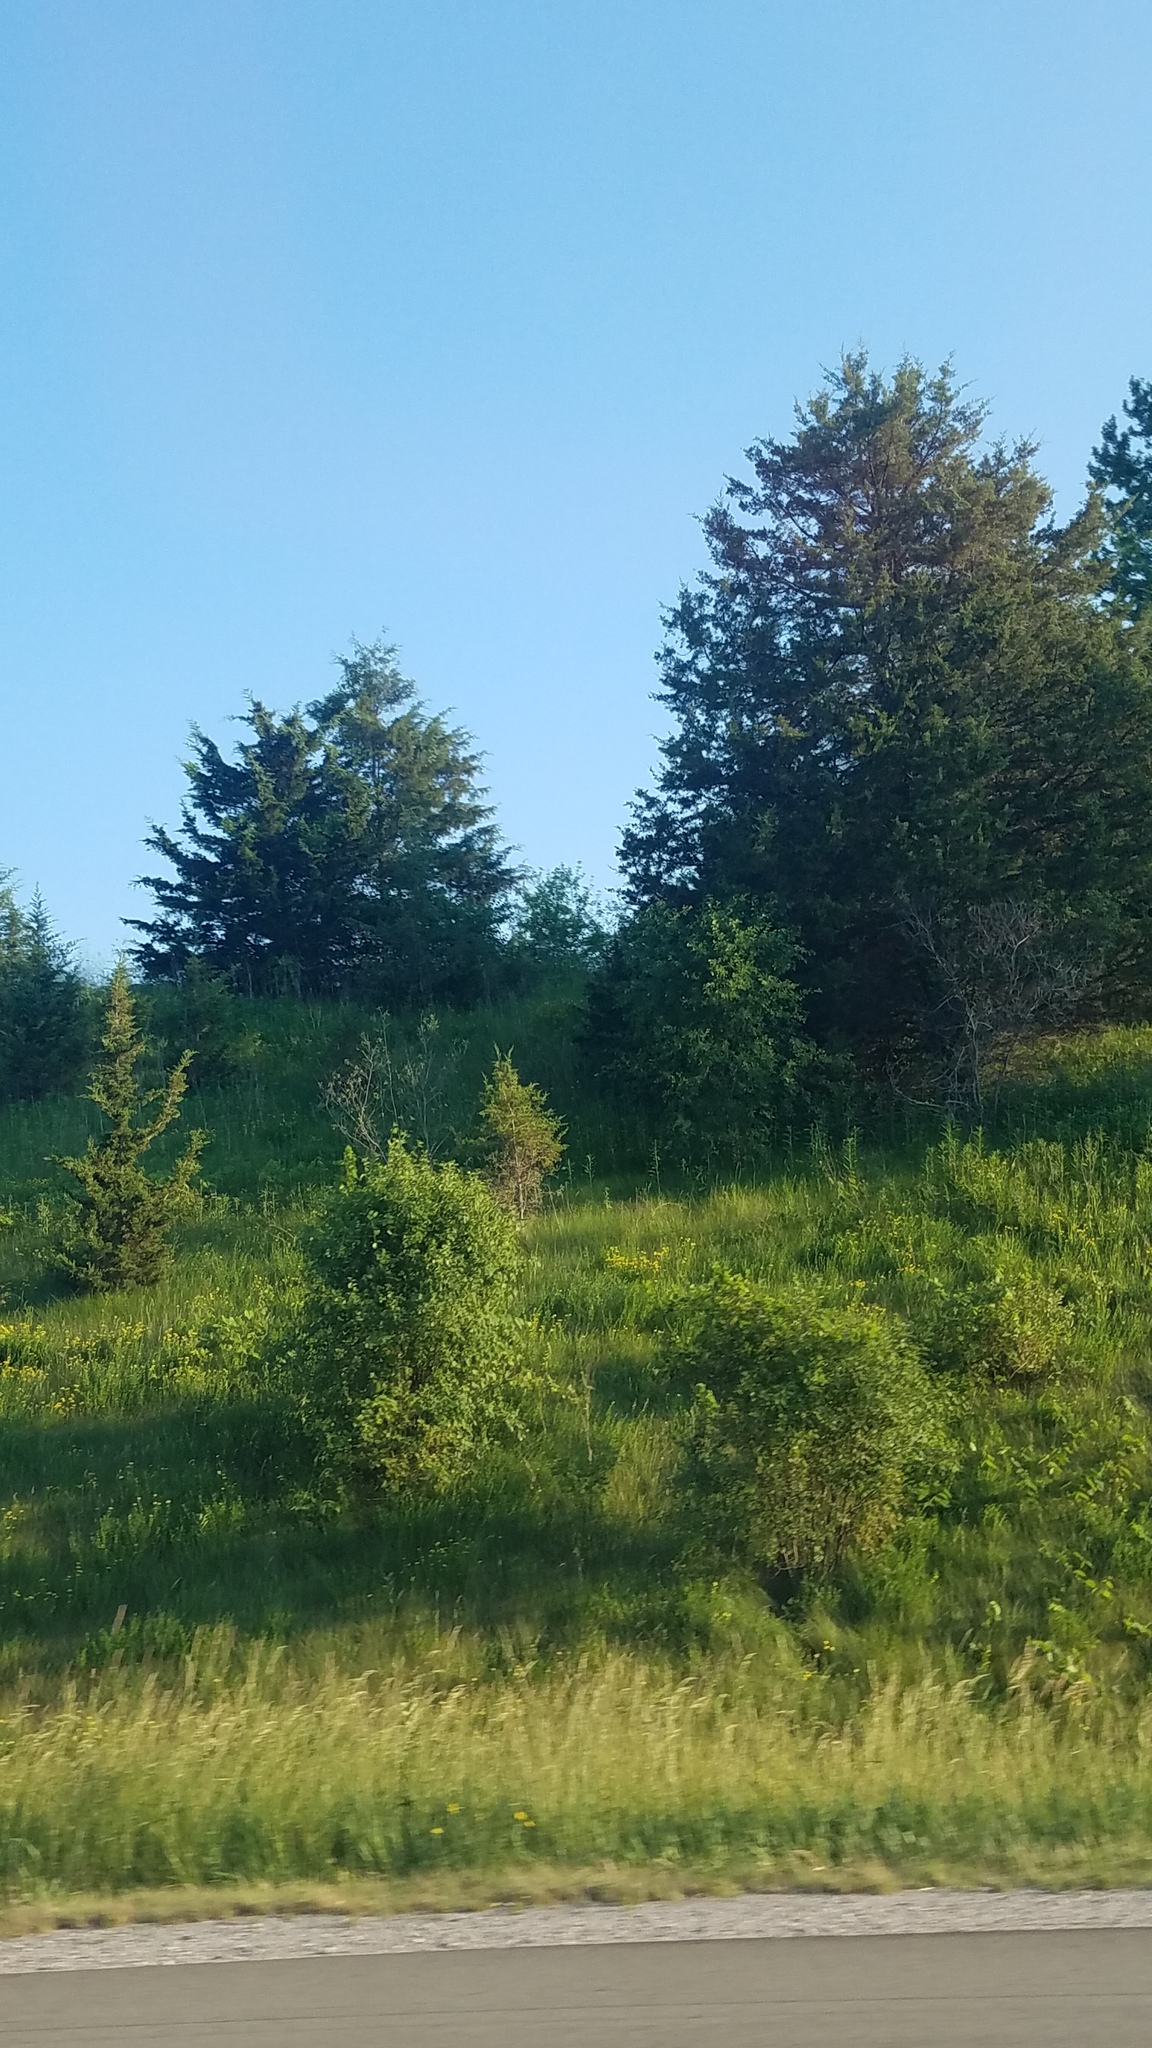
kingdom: Plantae
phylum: Tracheophyta
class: Pinopsida
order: Pinales
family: Cupressaceae
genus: Juniperus
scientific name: Juniperus virginiana
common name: Red juniper
